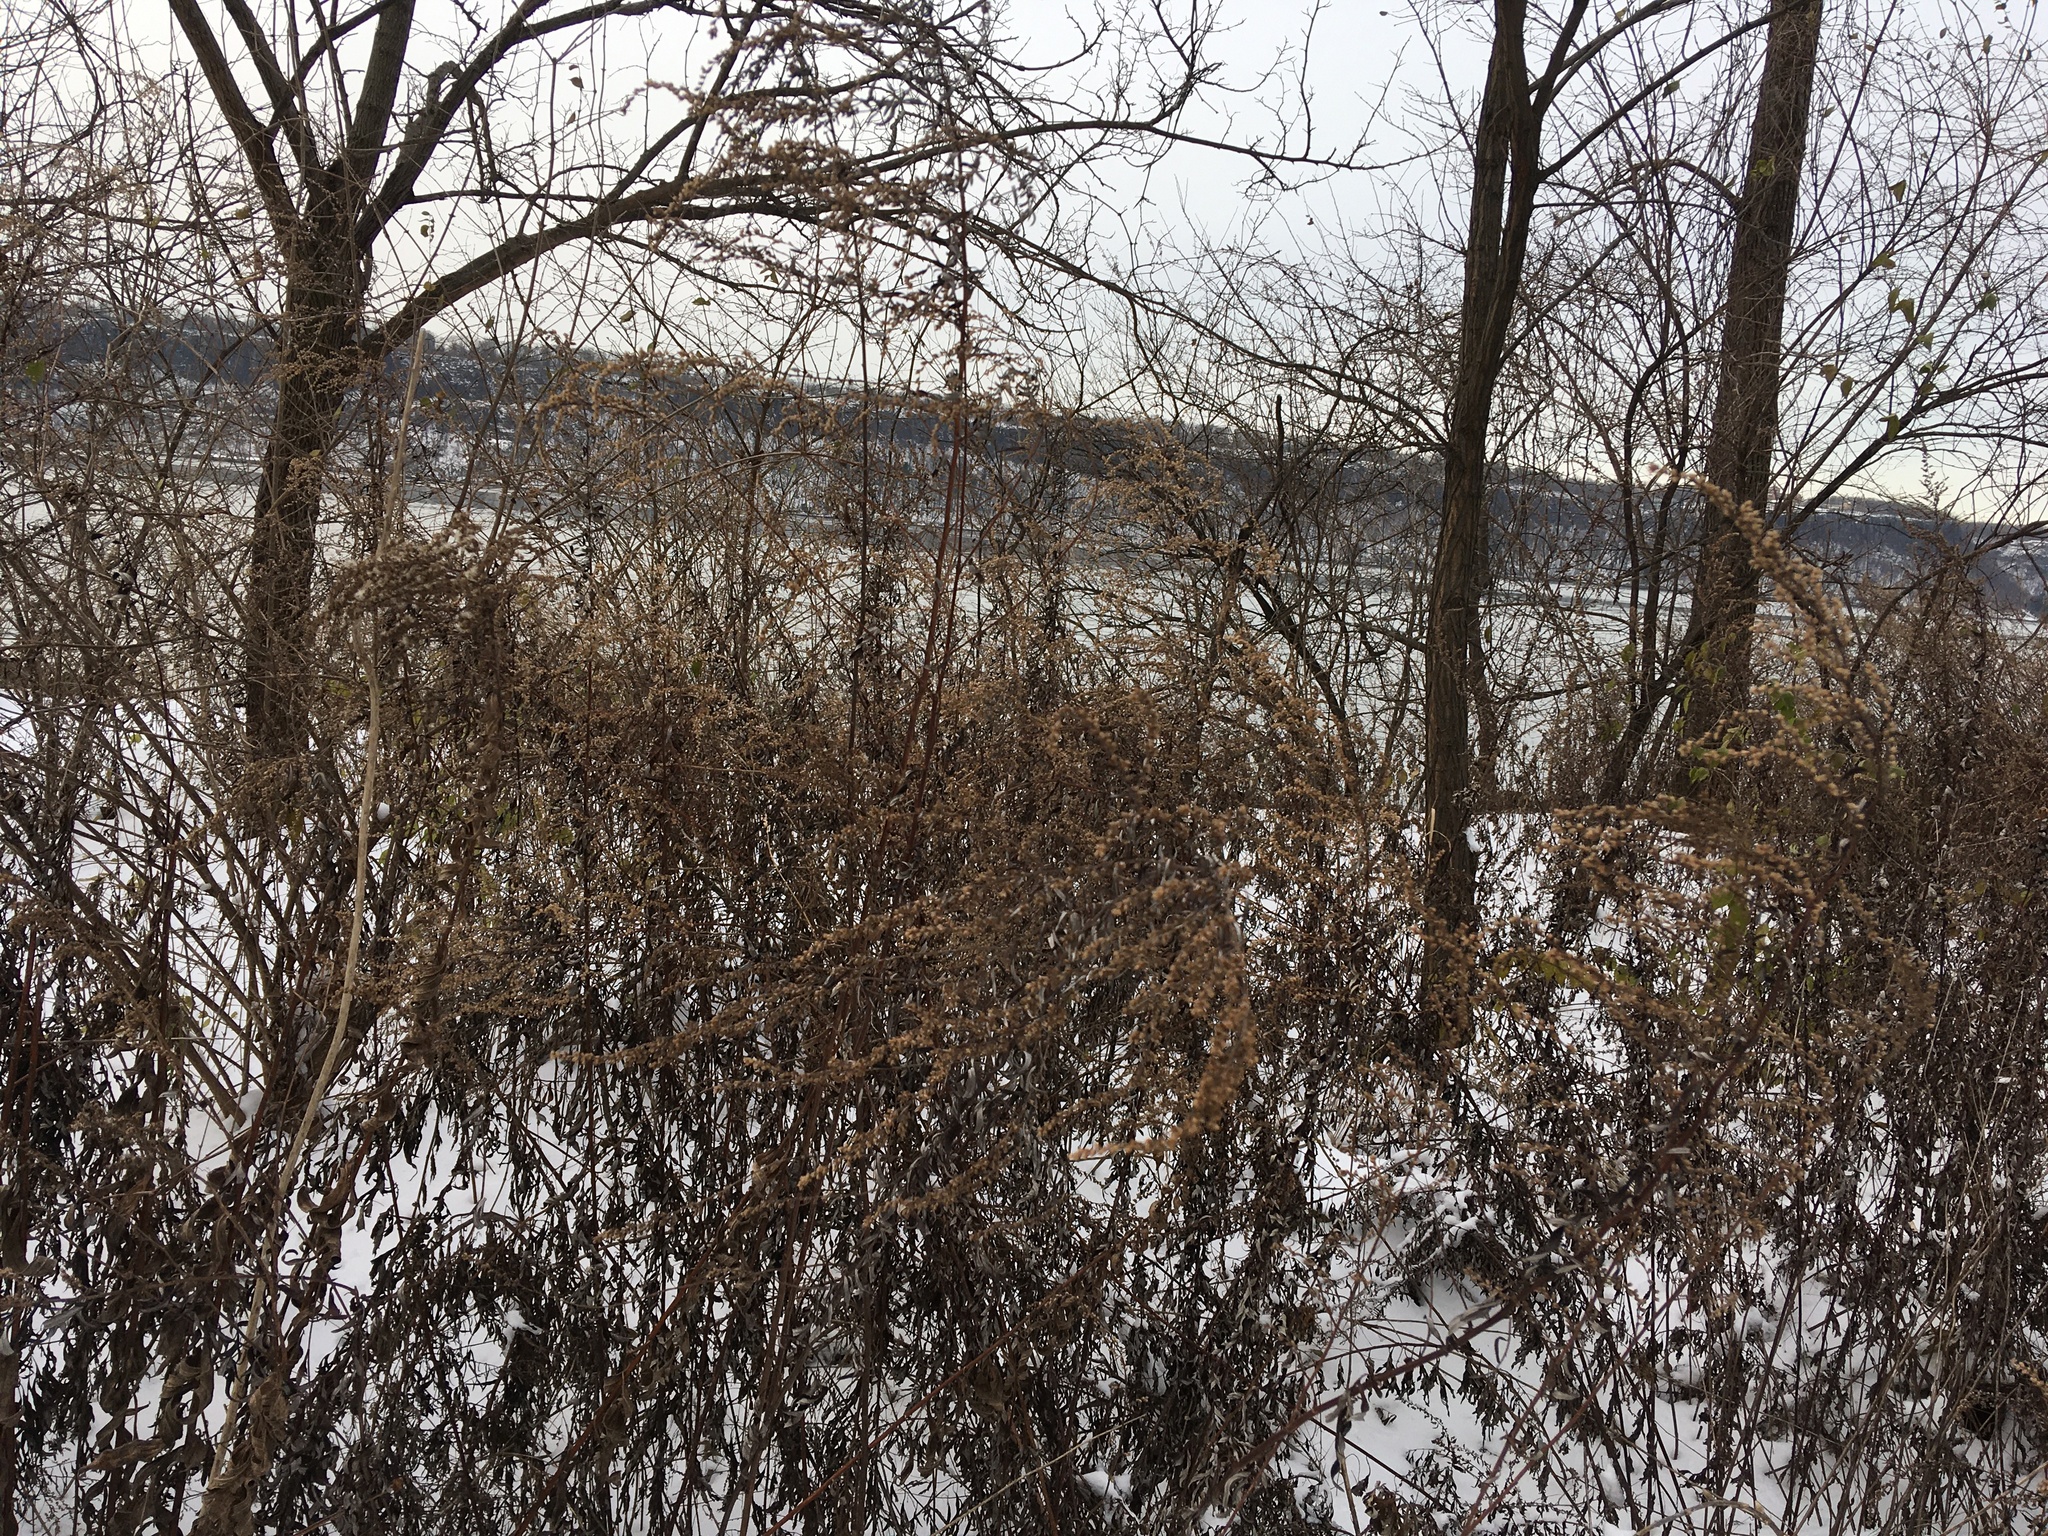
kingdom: Plantae
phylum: Tracheophyta
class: Magnoliopsida
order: Asterales
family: Asteraceae
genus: Artemisia
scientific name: Artemisia vulgaris
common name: Mugwort
